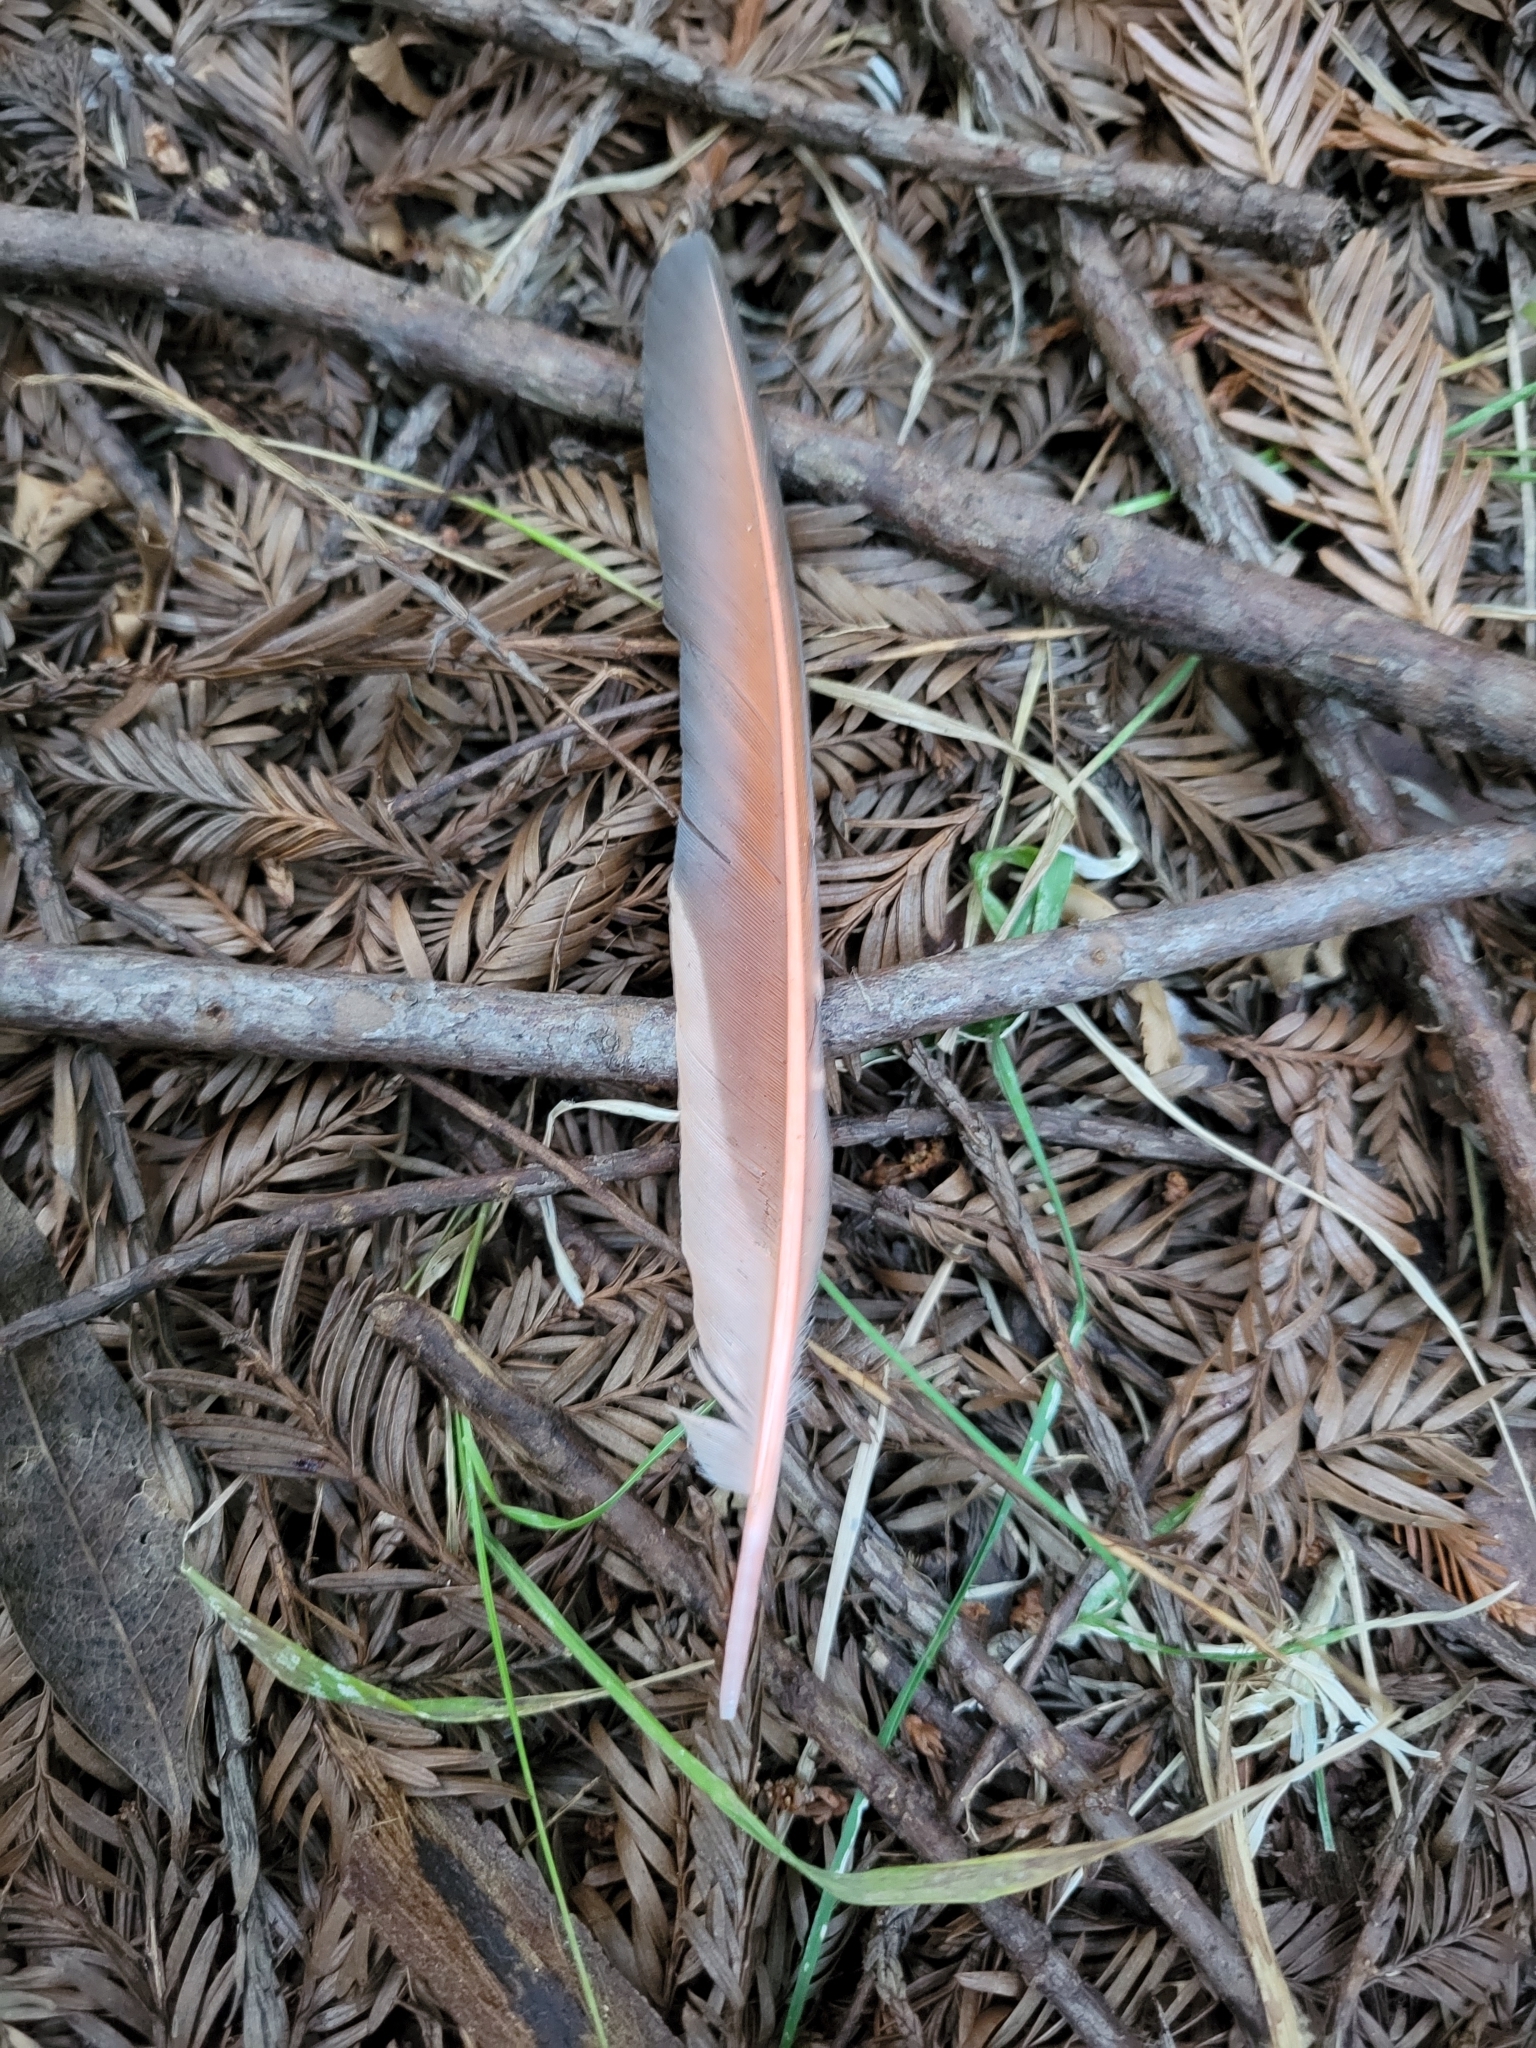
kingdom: Animalia
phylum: Chordata
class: Aves
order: Piciformes
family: Picidae
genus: Colaptes
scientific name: Colaptes auratus
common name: Northern flicker
